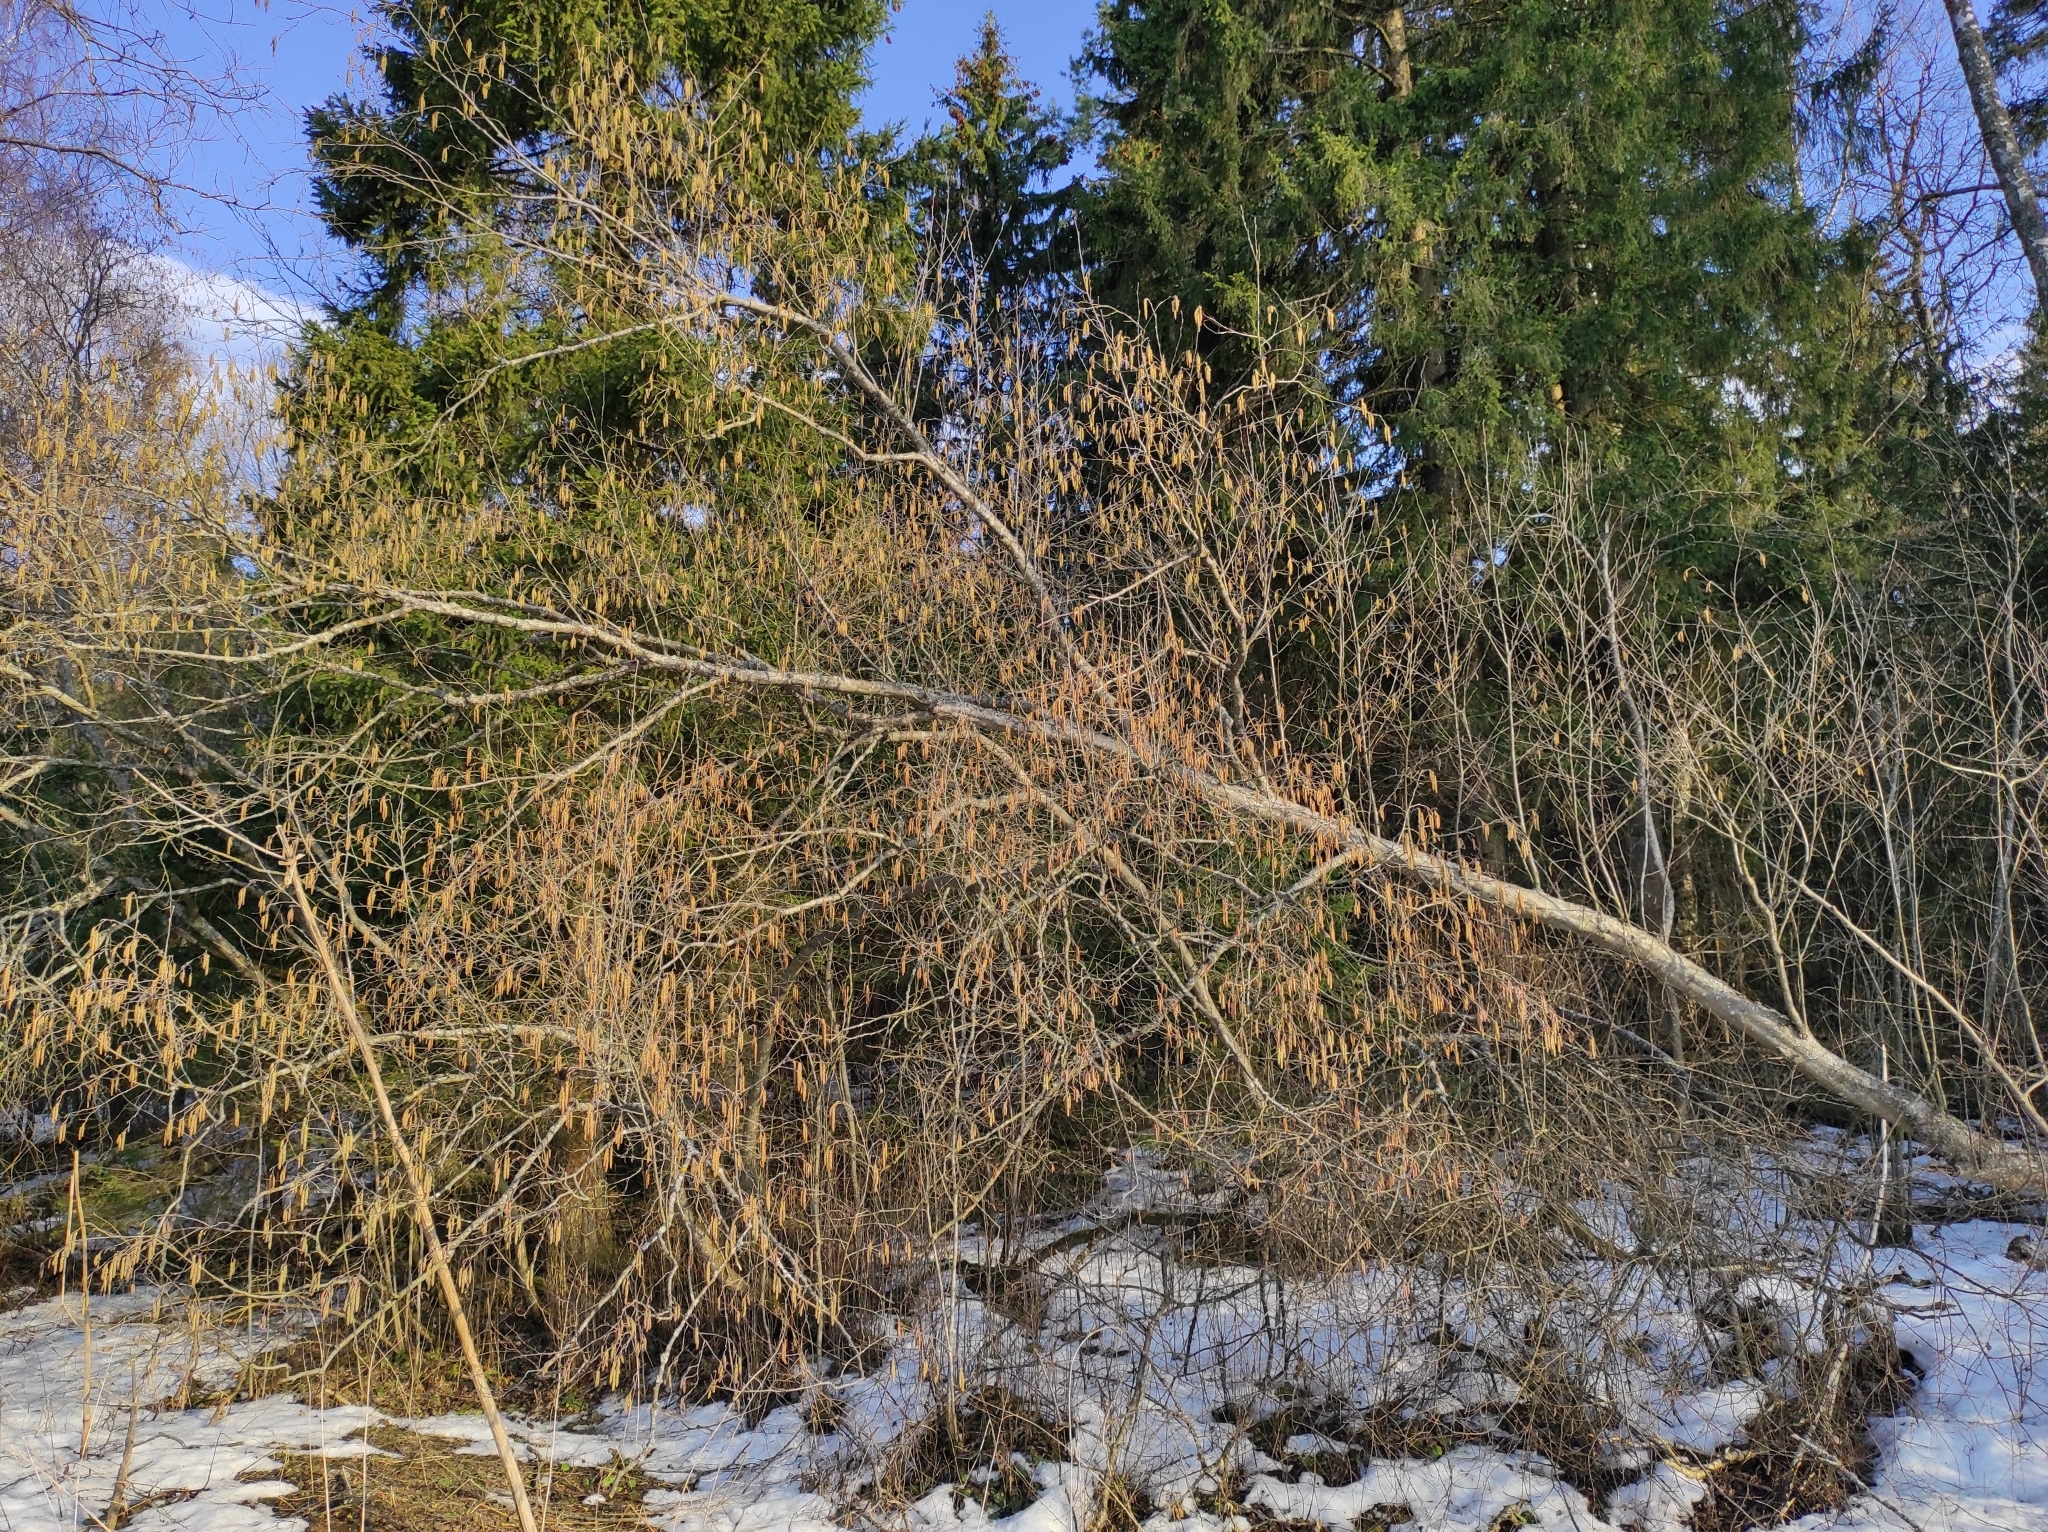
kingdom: Plantae
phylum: Tracheophyta
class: Magnoliopsida
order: Fagales
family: Betulaceae
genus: Alnus
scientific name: Alnus incana
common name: Grey alder
